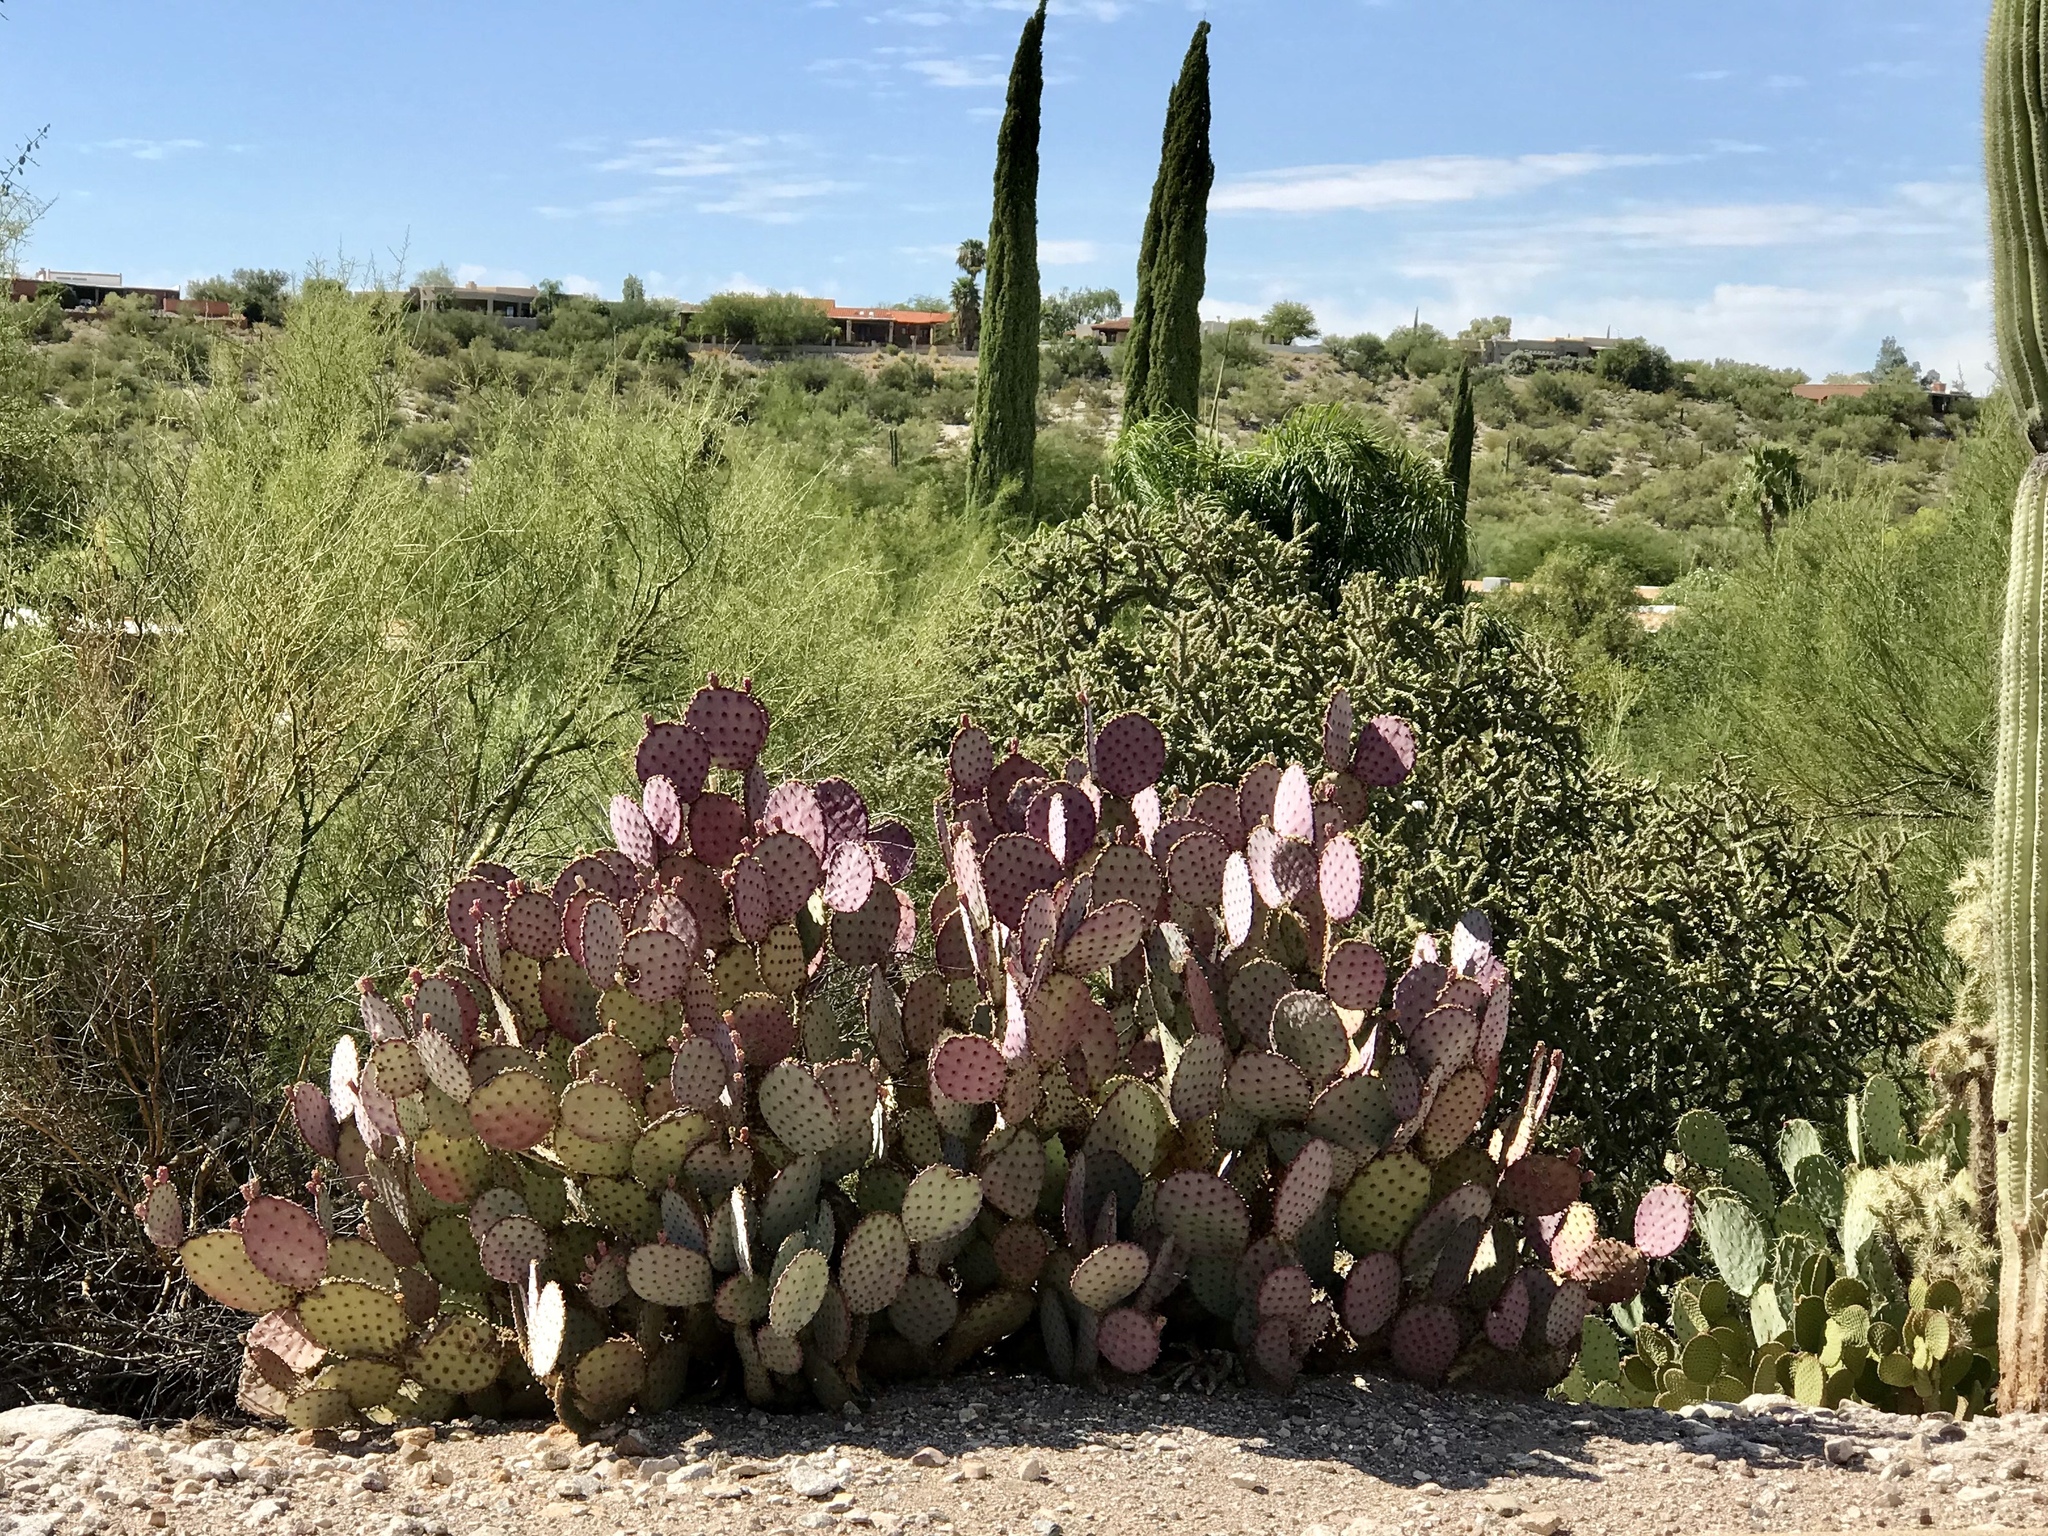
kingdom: Plantae
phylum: Tracheophyta
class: Magnoliopsida
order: Caryophyllales
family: Cactaceae
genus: Opuntia
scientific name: Opuntia gosseliniana
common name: Violet prickly-pear
